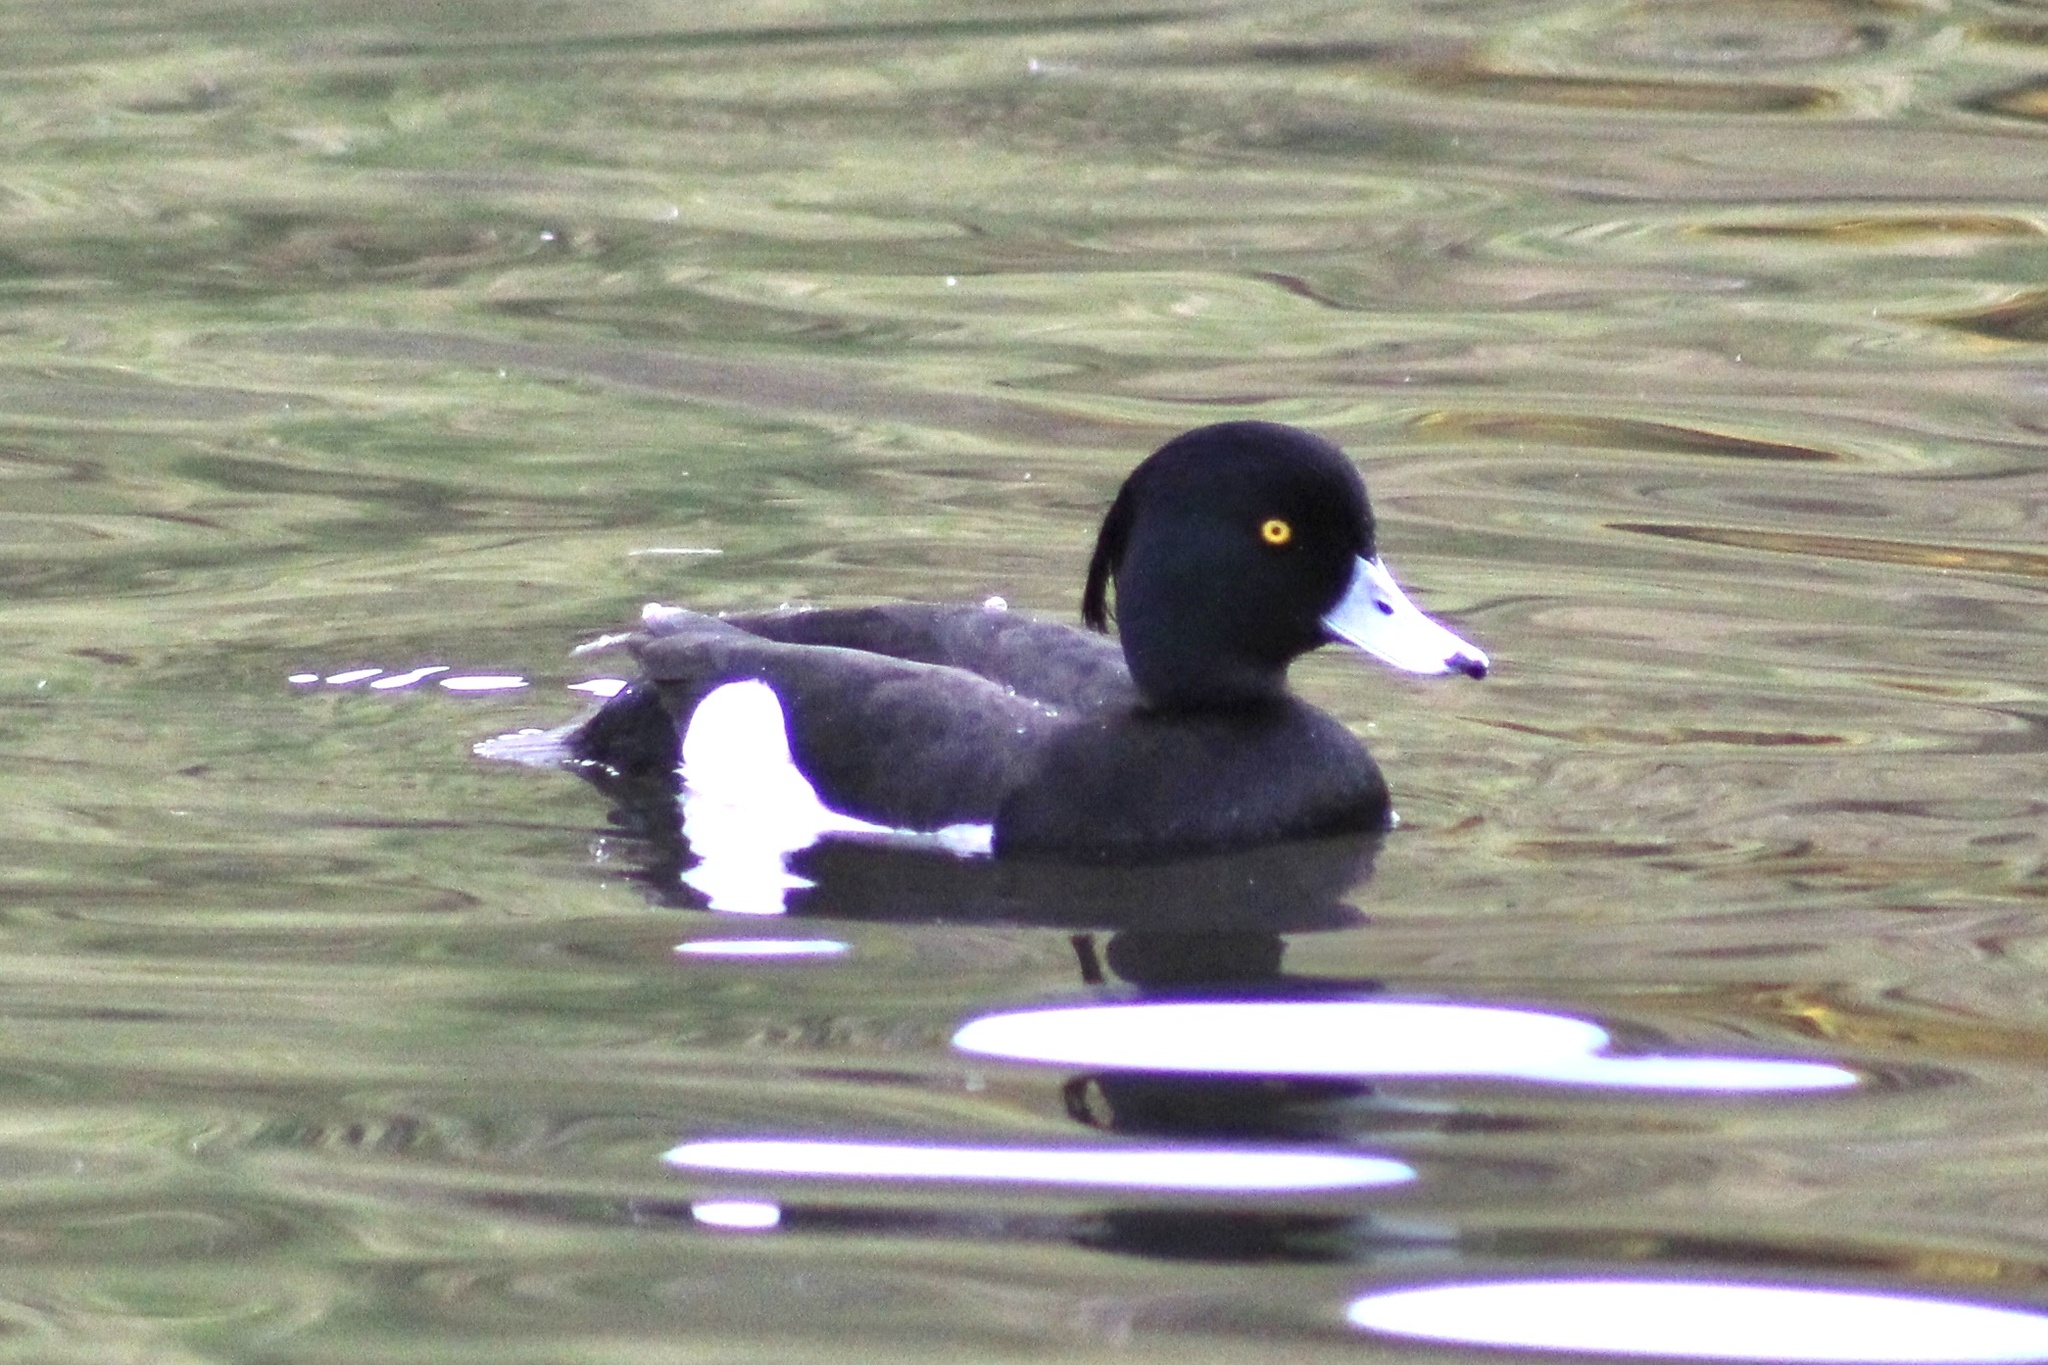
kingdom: Animalia
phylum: Chordata
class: Aves
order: Anseriformes
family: Anatidae
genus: Aythya
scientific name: Aythya fuligula
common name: Tufted duck
